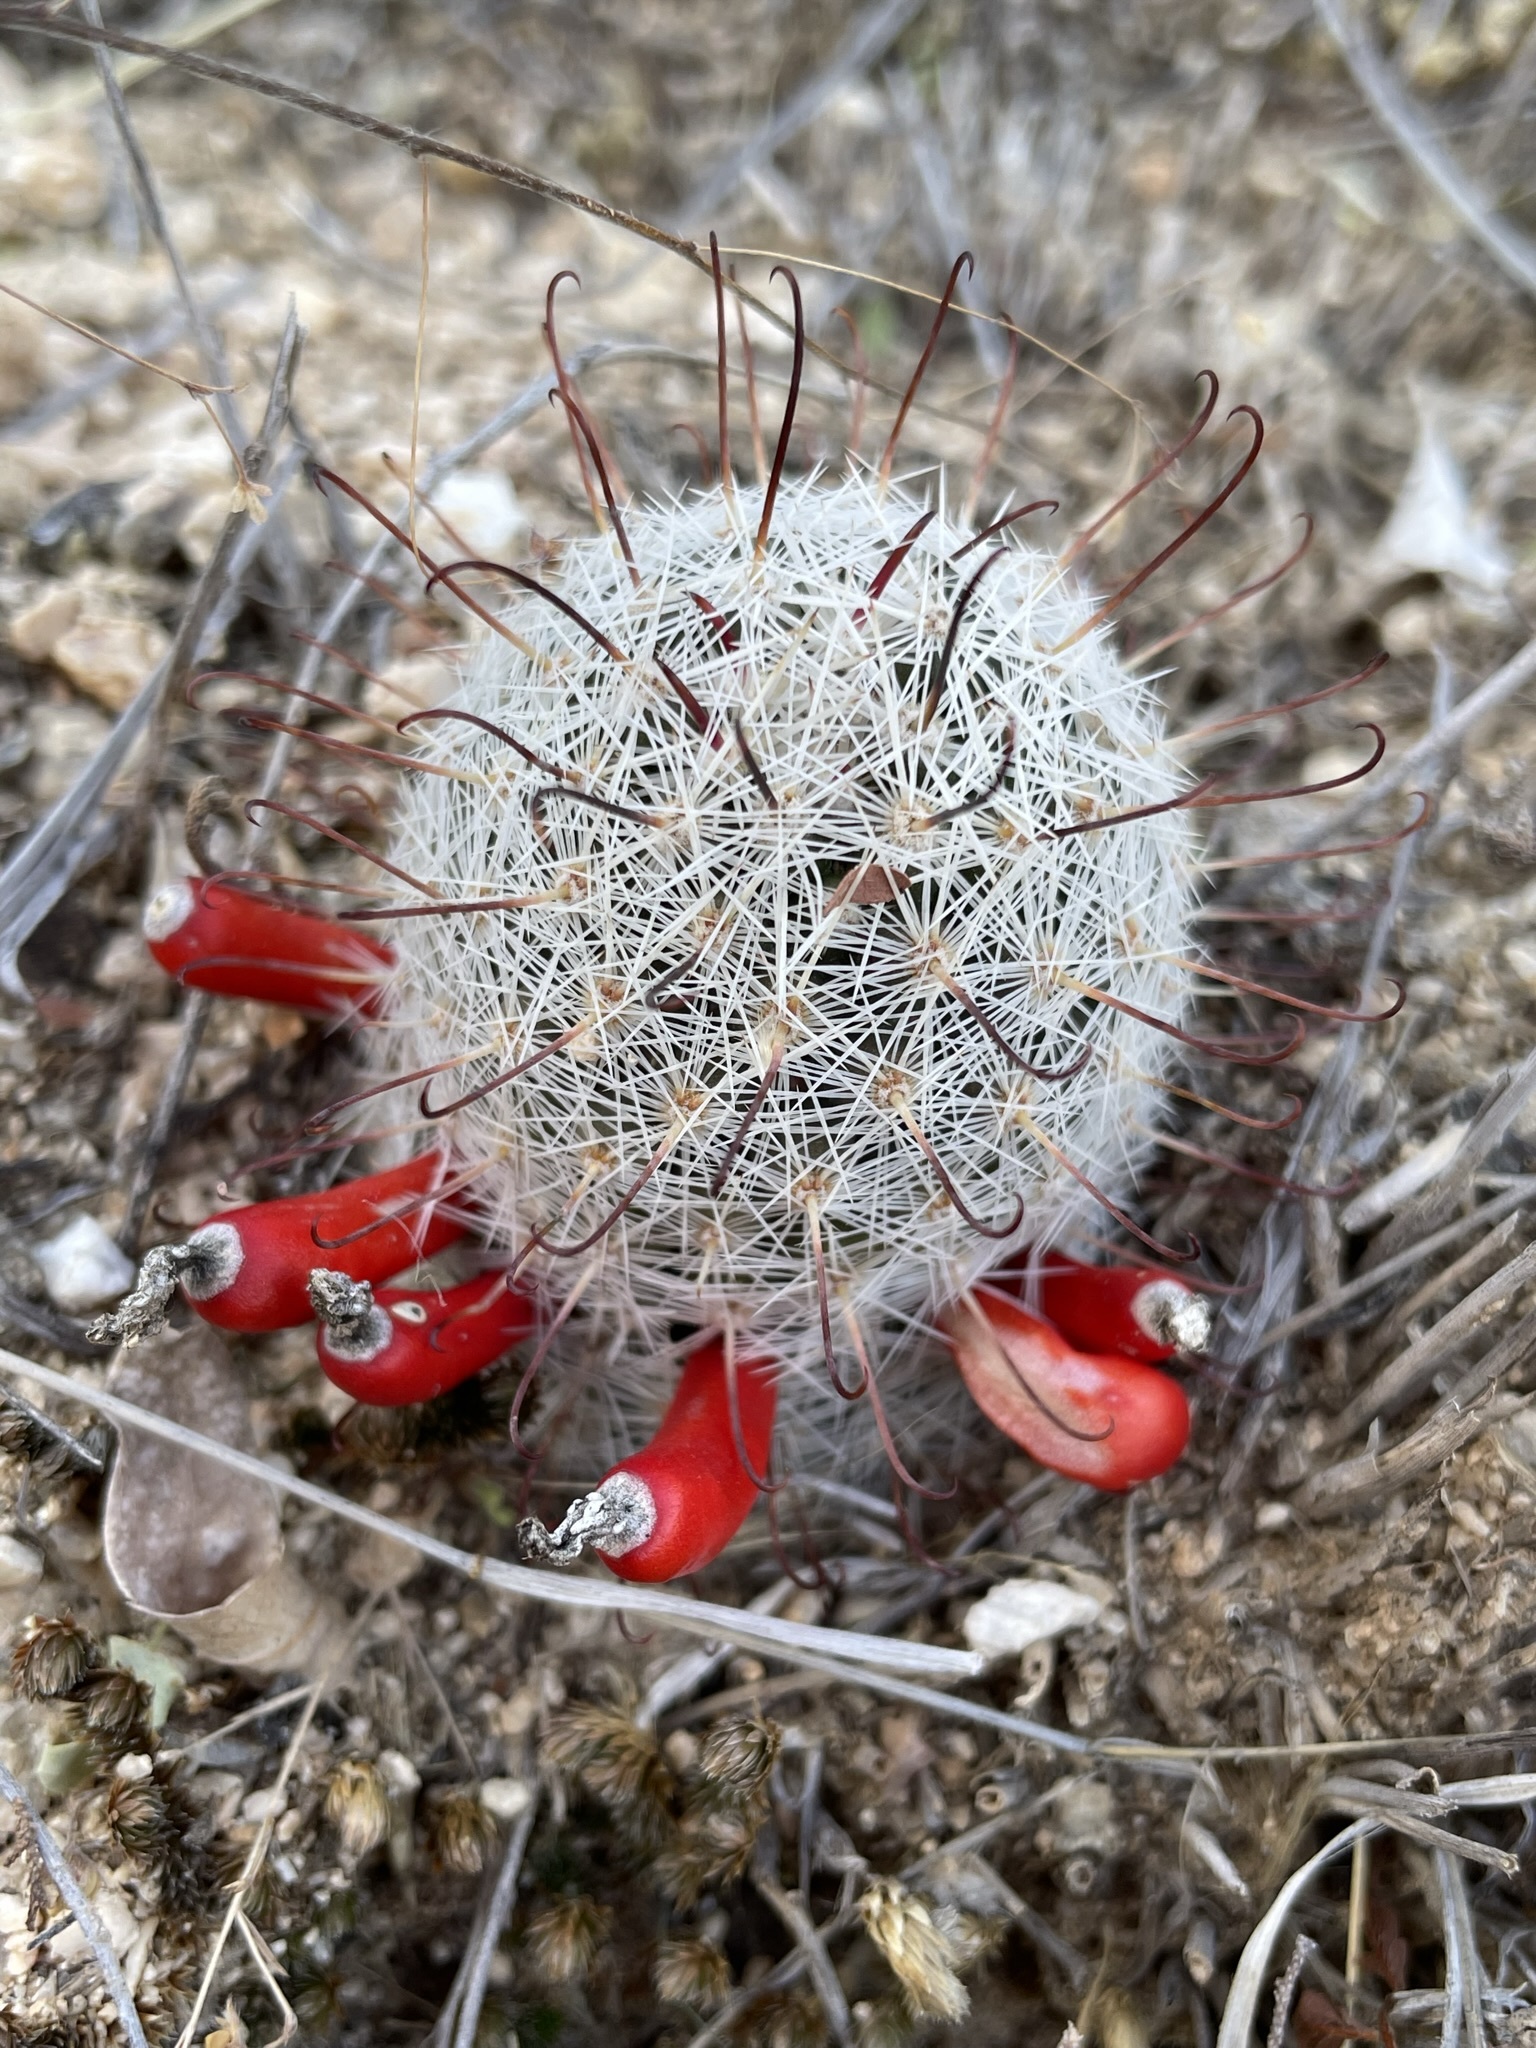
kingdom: Plantae
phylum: Tracheophyta
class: Magnoliopsida
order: Caryophyllales
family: Cactaceae
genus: Cochemiea
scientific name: Cochemiea grahamii
